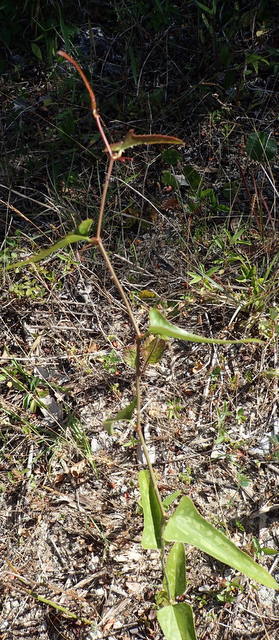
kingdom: Plantae
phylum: Tracheophyta
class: Liliopsida
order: Liliales
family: Smilacaceae
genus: Smilax
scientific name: Smilax auriculata
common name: Wild bamboo
